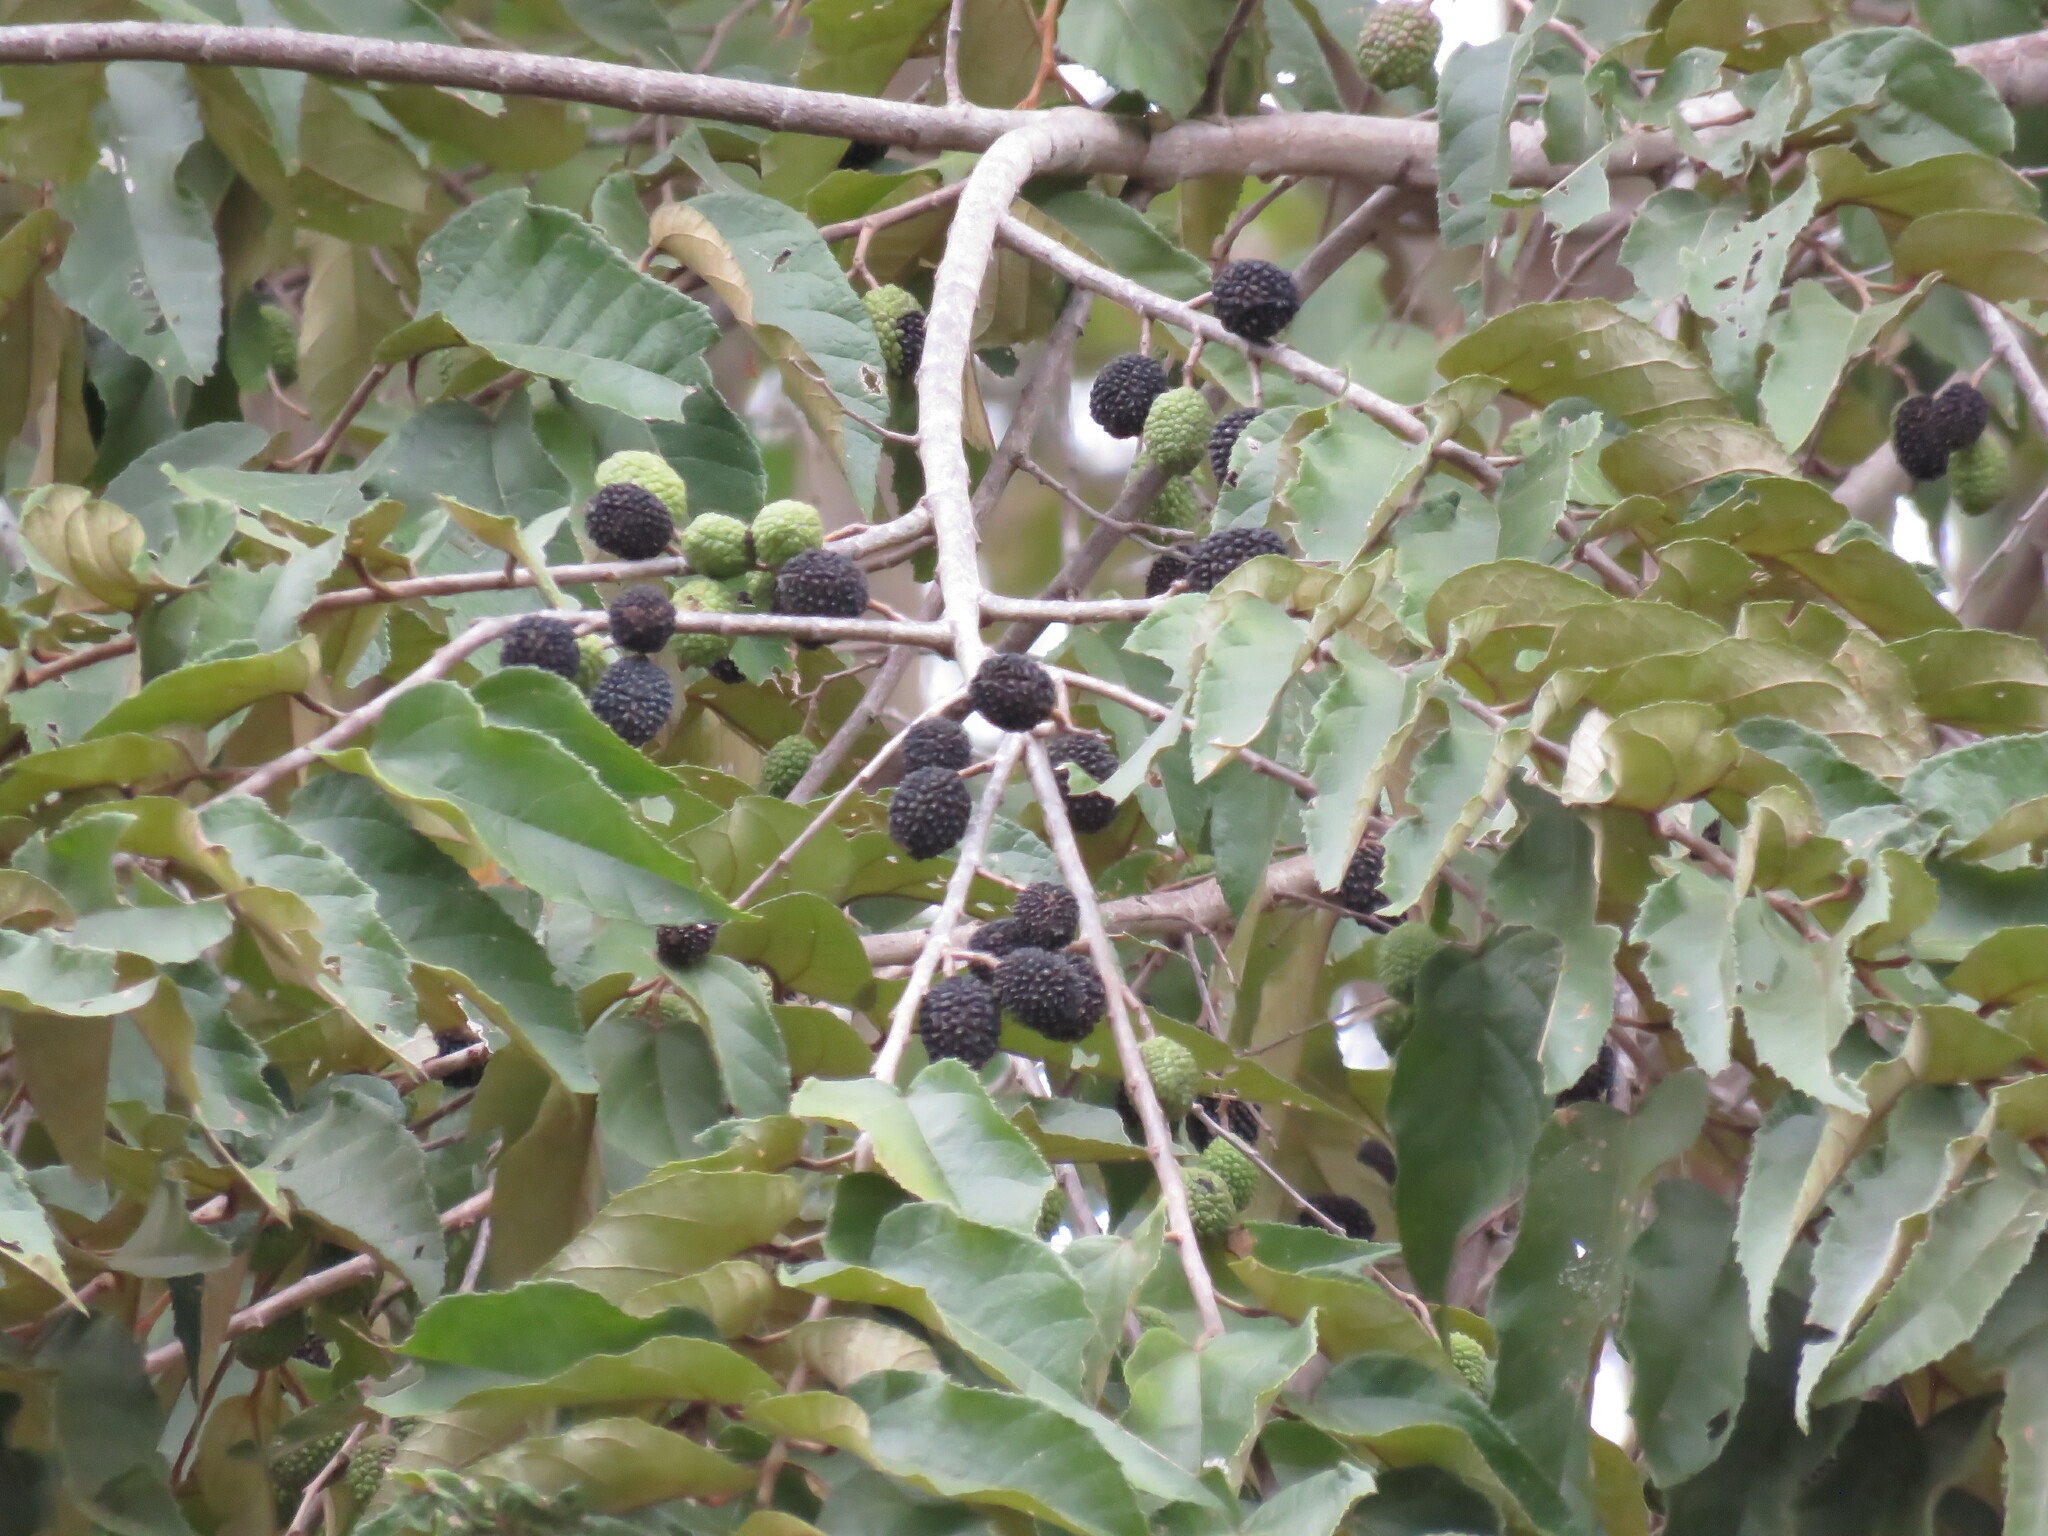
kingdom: Plantae
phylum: Tracheophyta
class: Magnoliopsida
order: Malvales
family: Malvaceae
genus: Guazuma
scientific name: Guazuma ulmifolia
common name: Bastard-cedar
